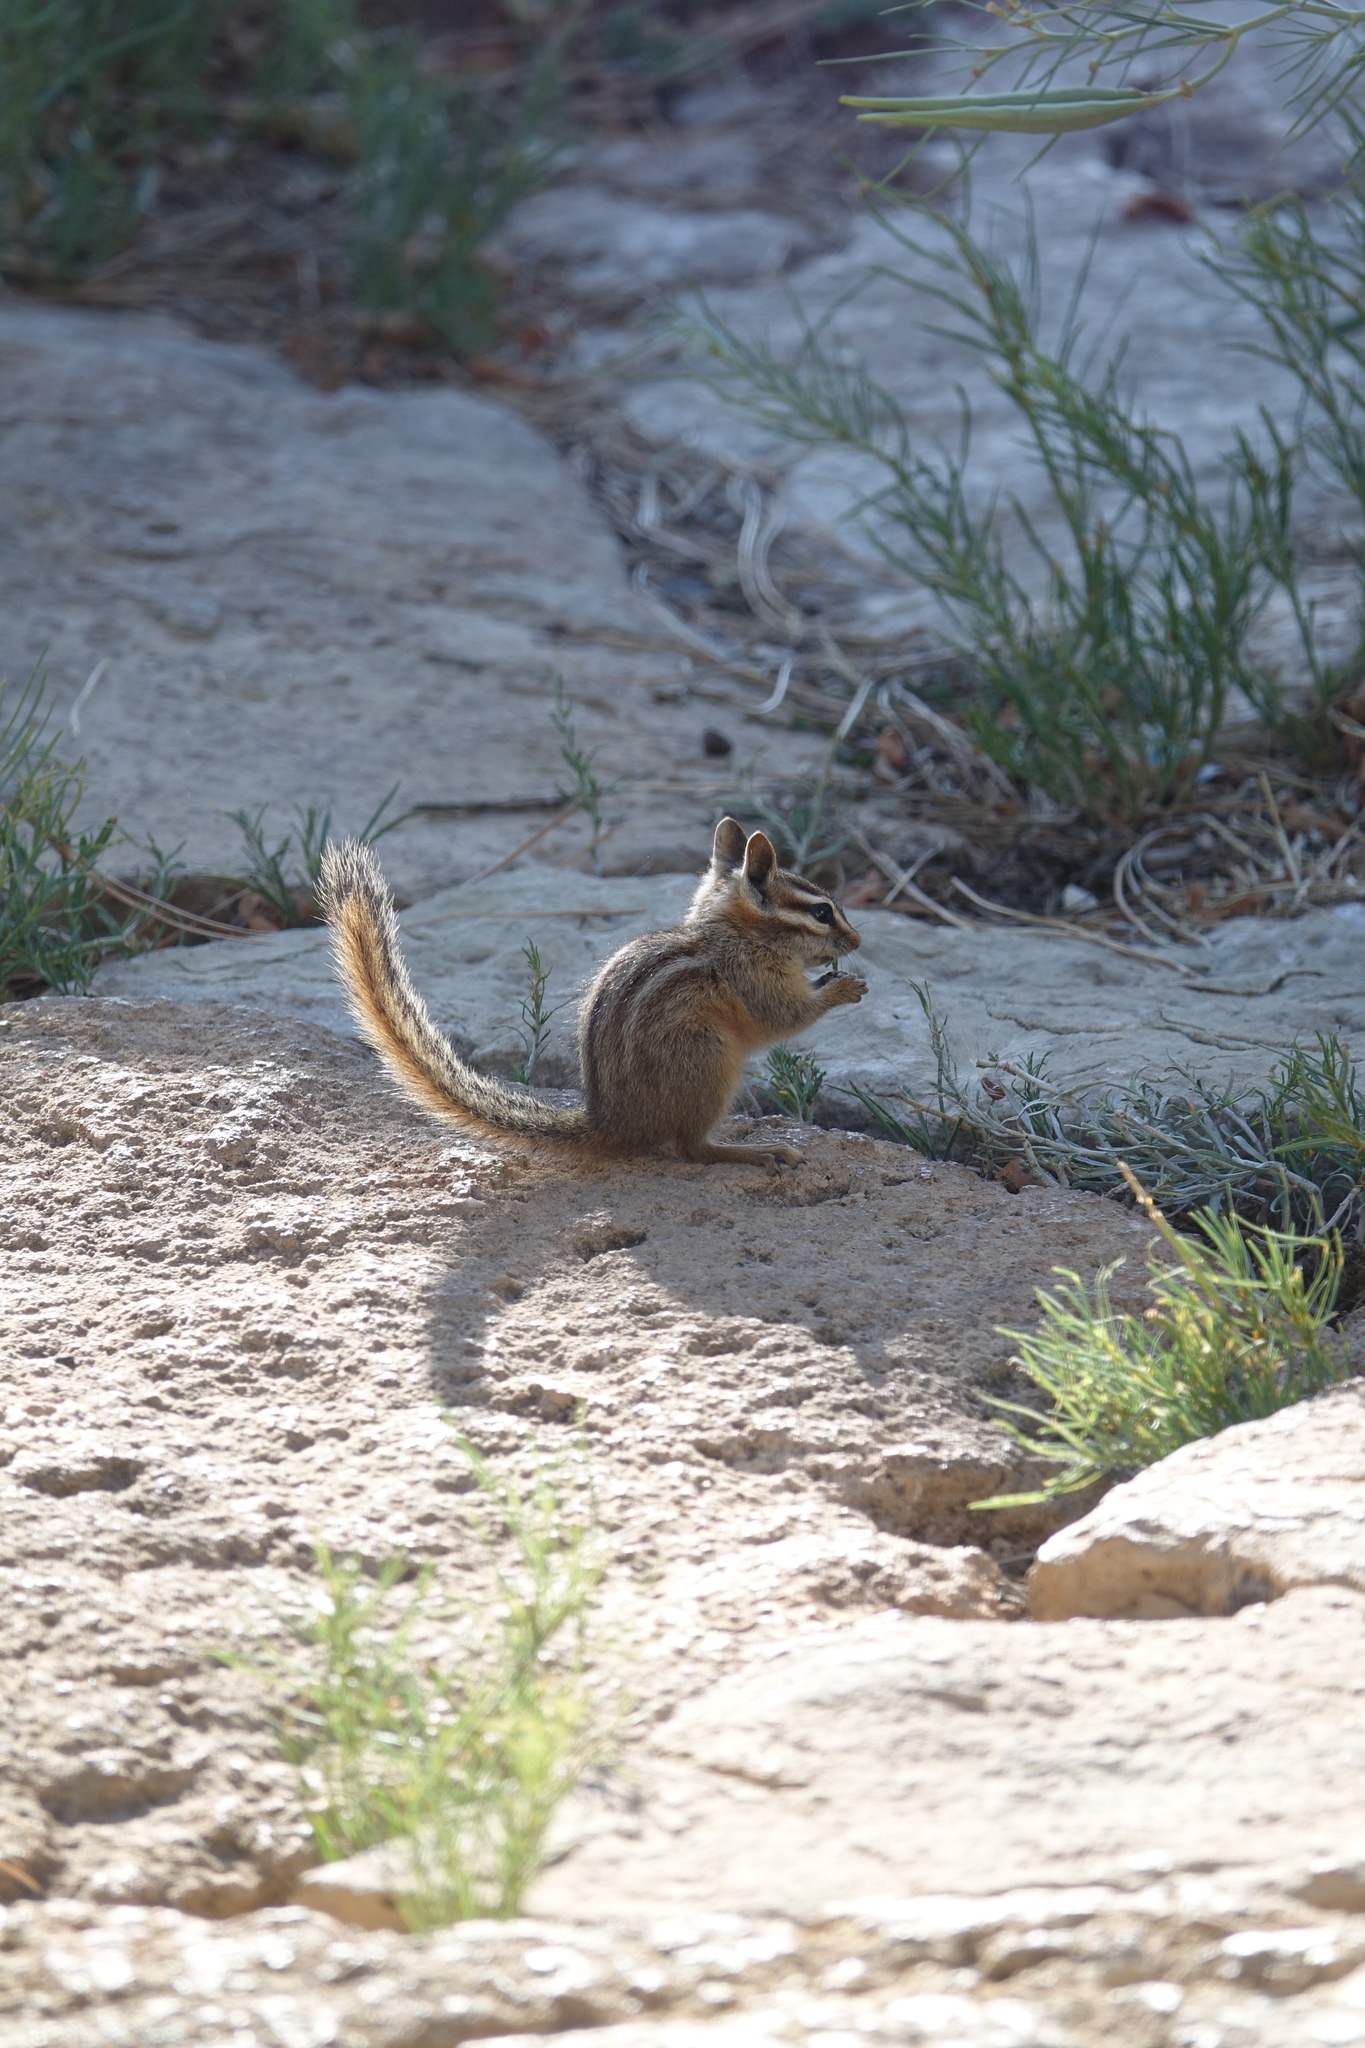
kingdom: Animalia
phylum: Chordata
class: Mammalia
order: Rodentia
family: Sciuridae
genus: Tamias
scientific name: Tamias dorsalis
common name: Cliff chipmunk
